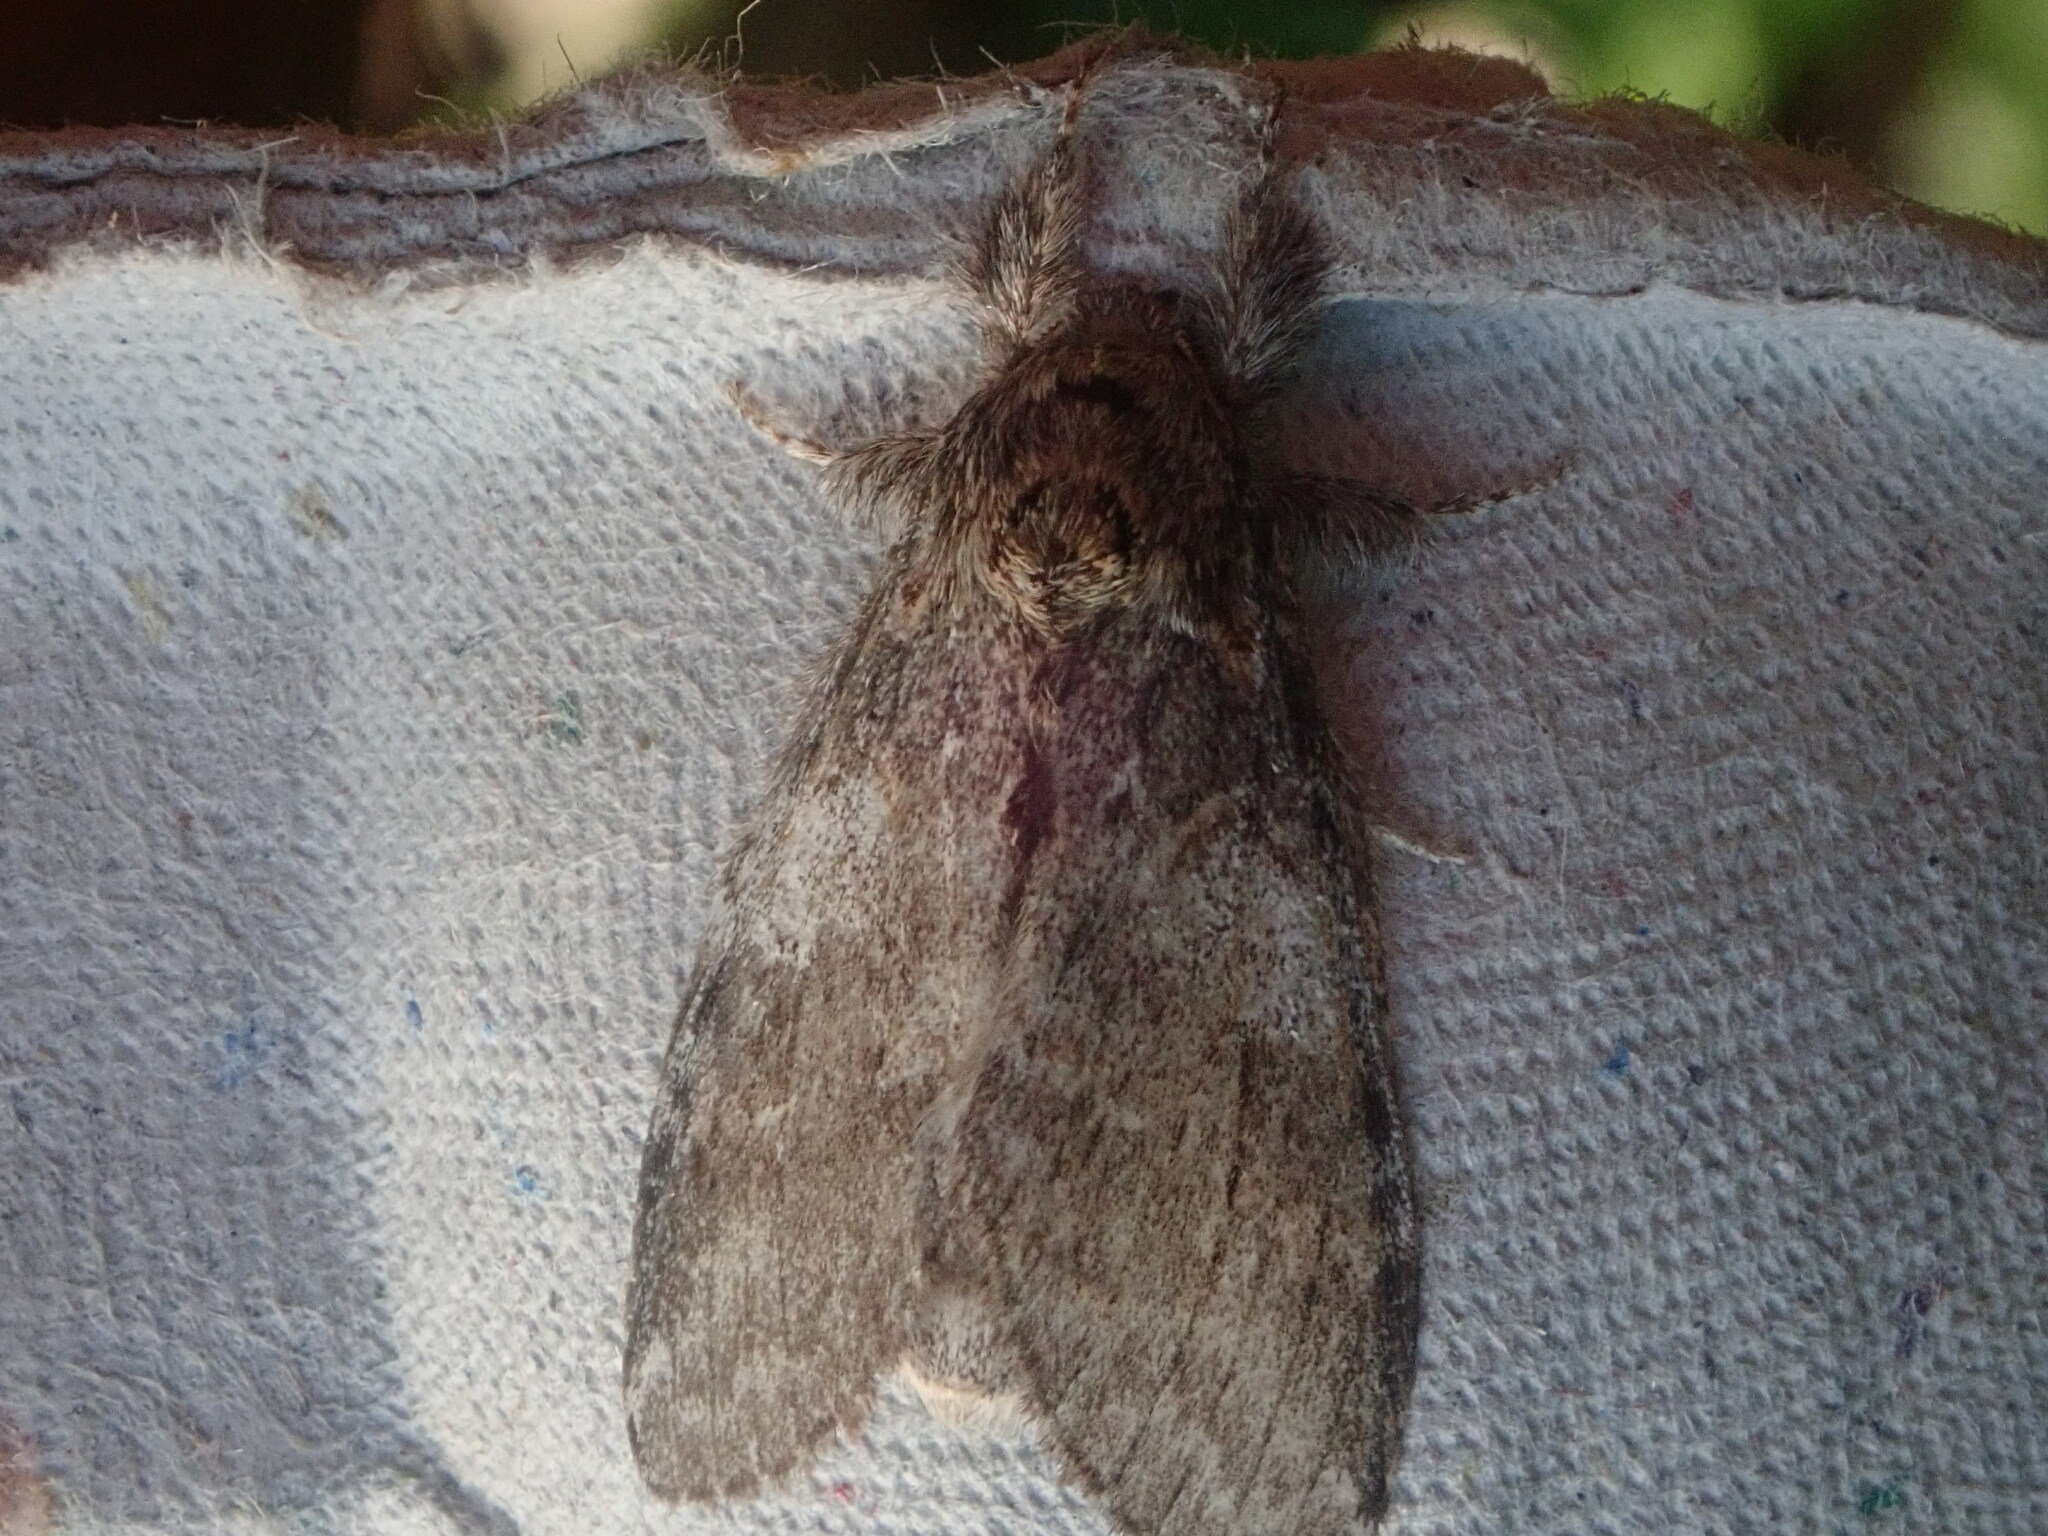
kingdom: Animalia
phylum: Arthropoda
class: Insecta
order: Lepidoptera
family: Notodontidae
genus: Peridea
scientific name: Peridea angulosa
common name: Angulose prominent
